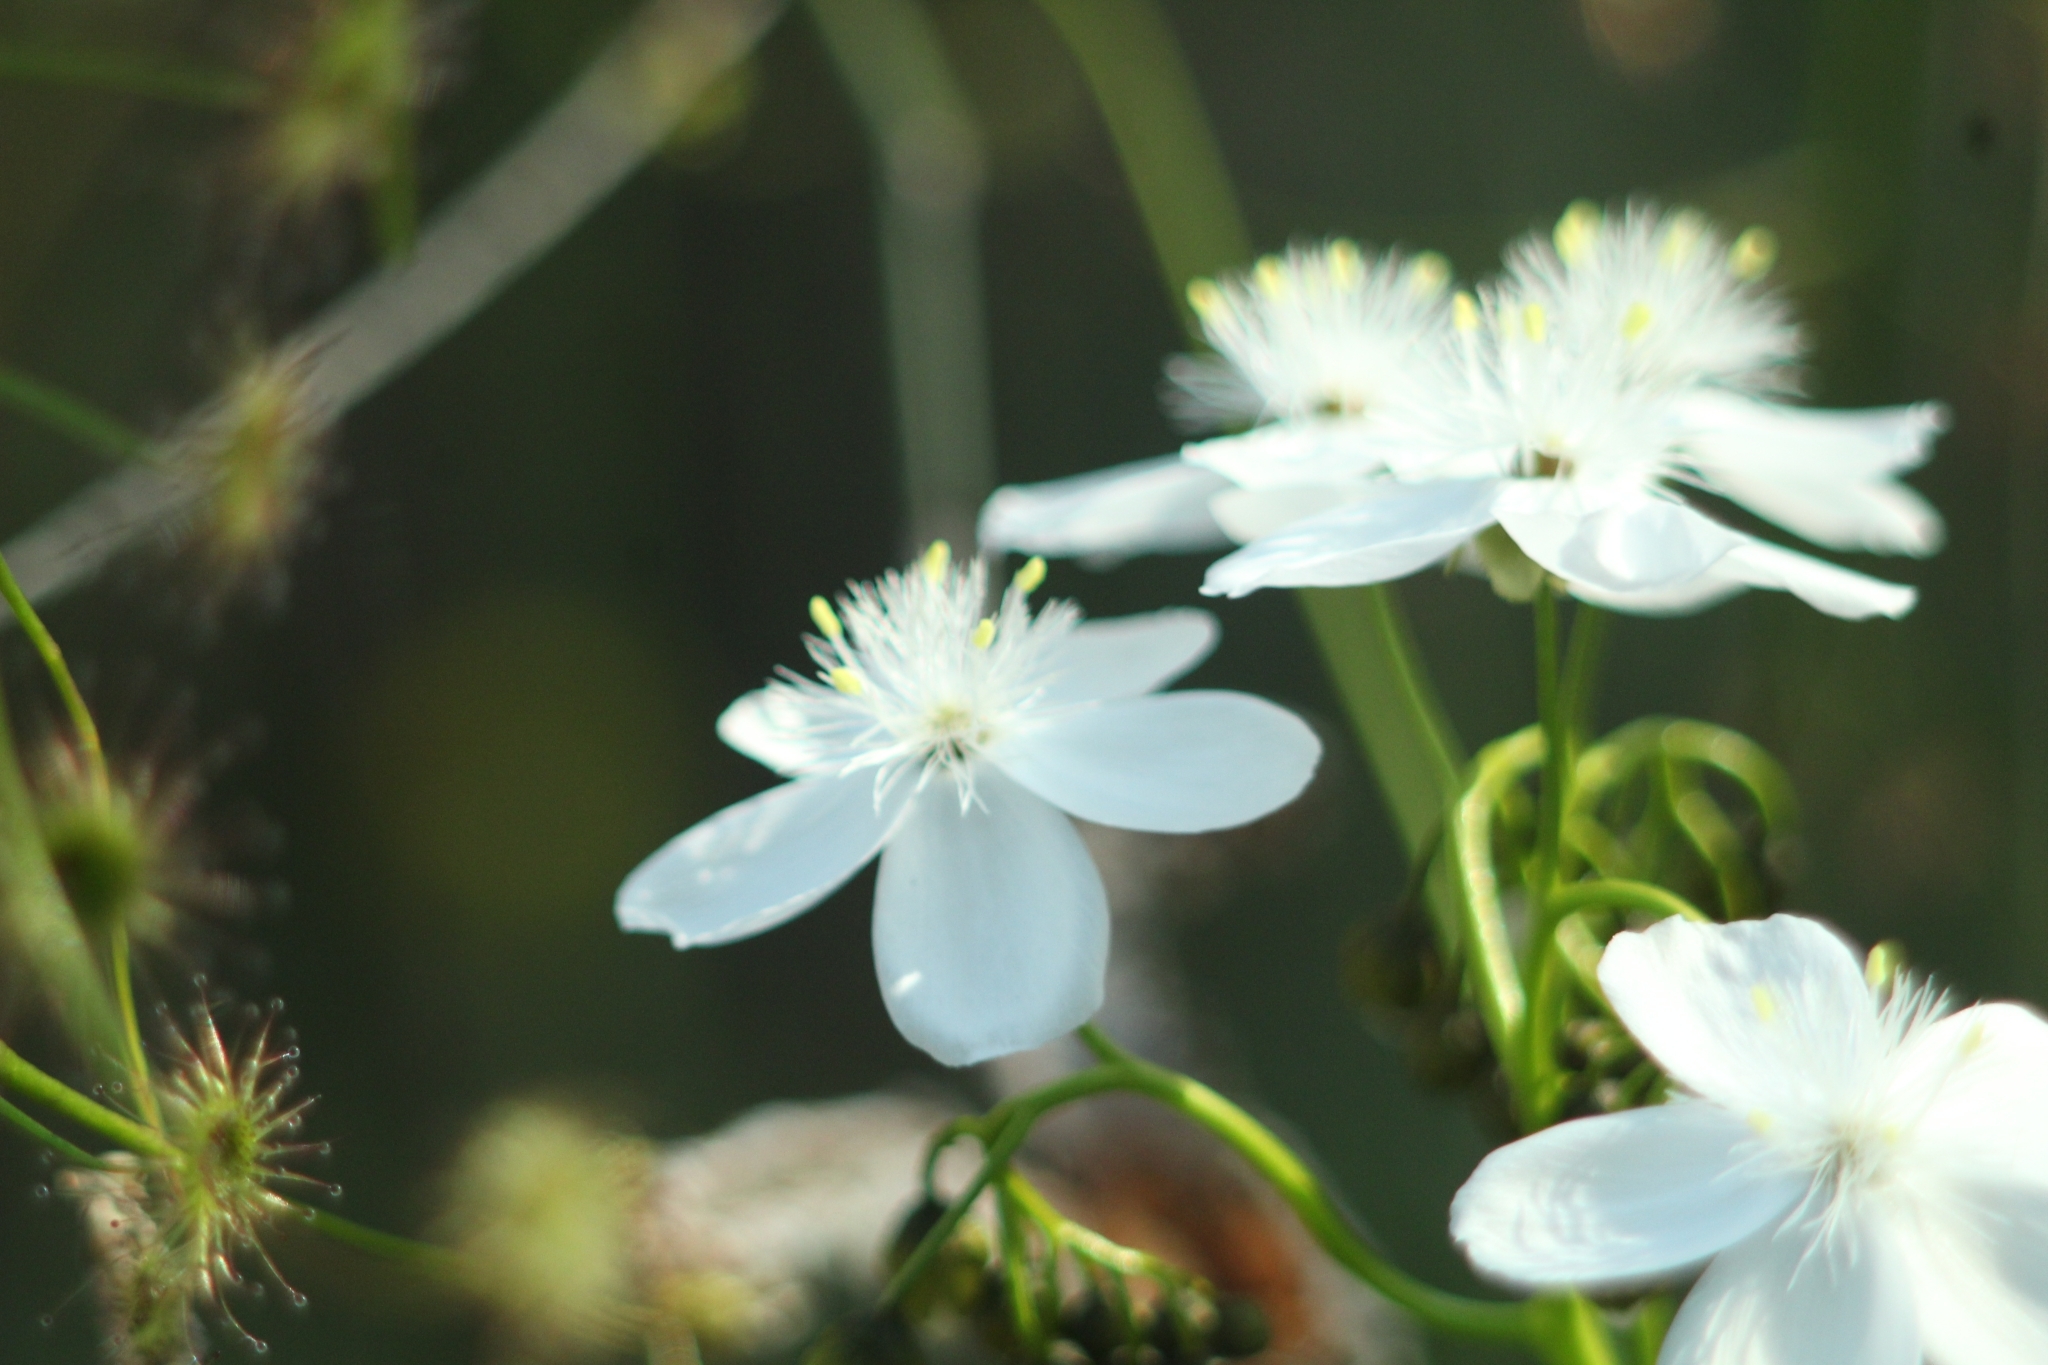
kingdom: Plantae
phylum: Tracheophyta
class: Magnoliopsida
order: Caryophyllales
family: Droseraceae
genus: Drosera
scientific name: Drosera pallida
